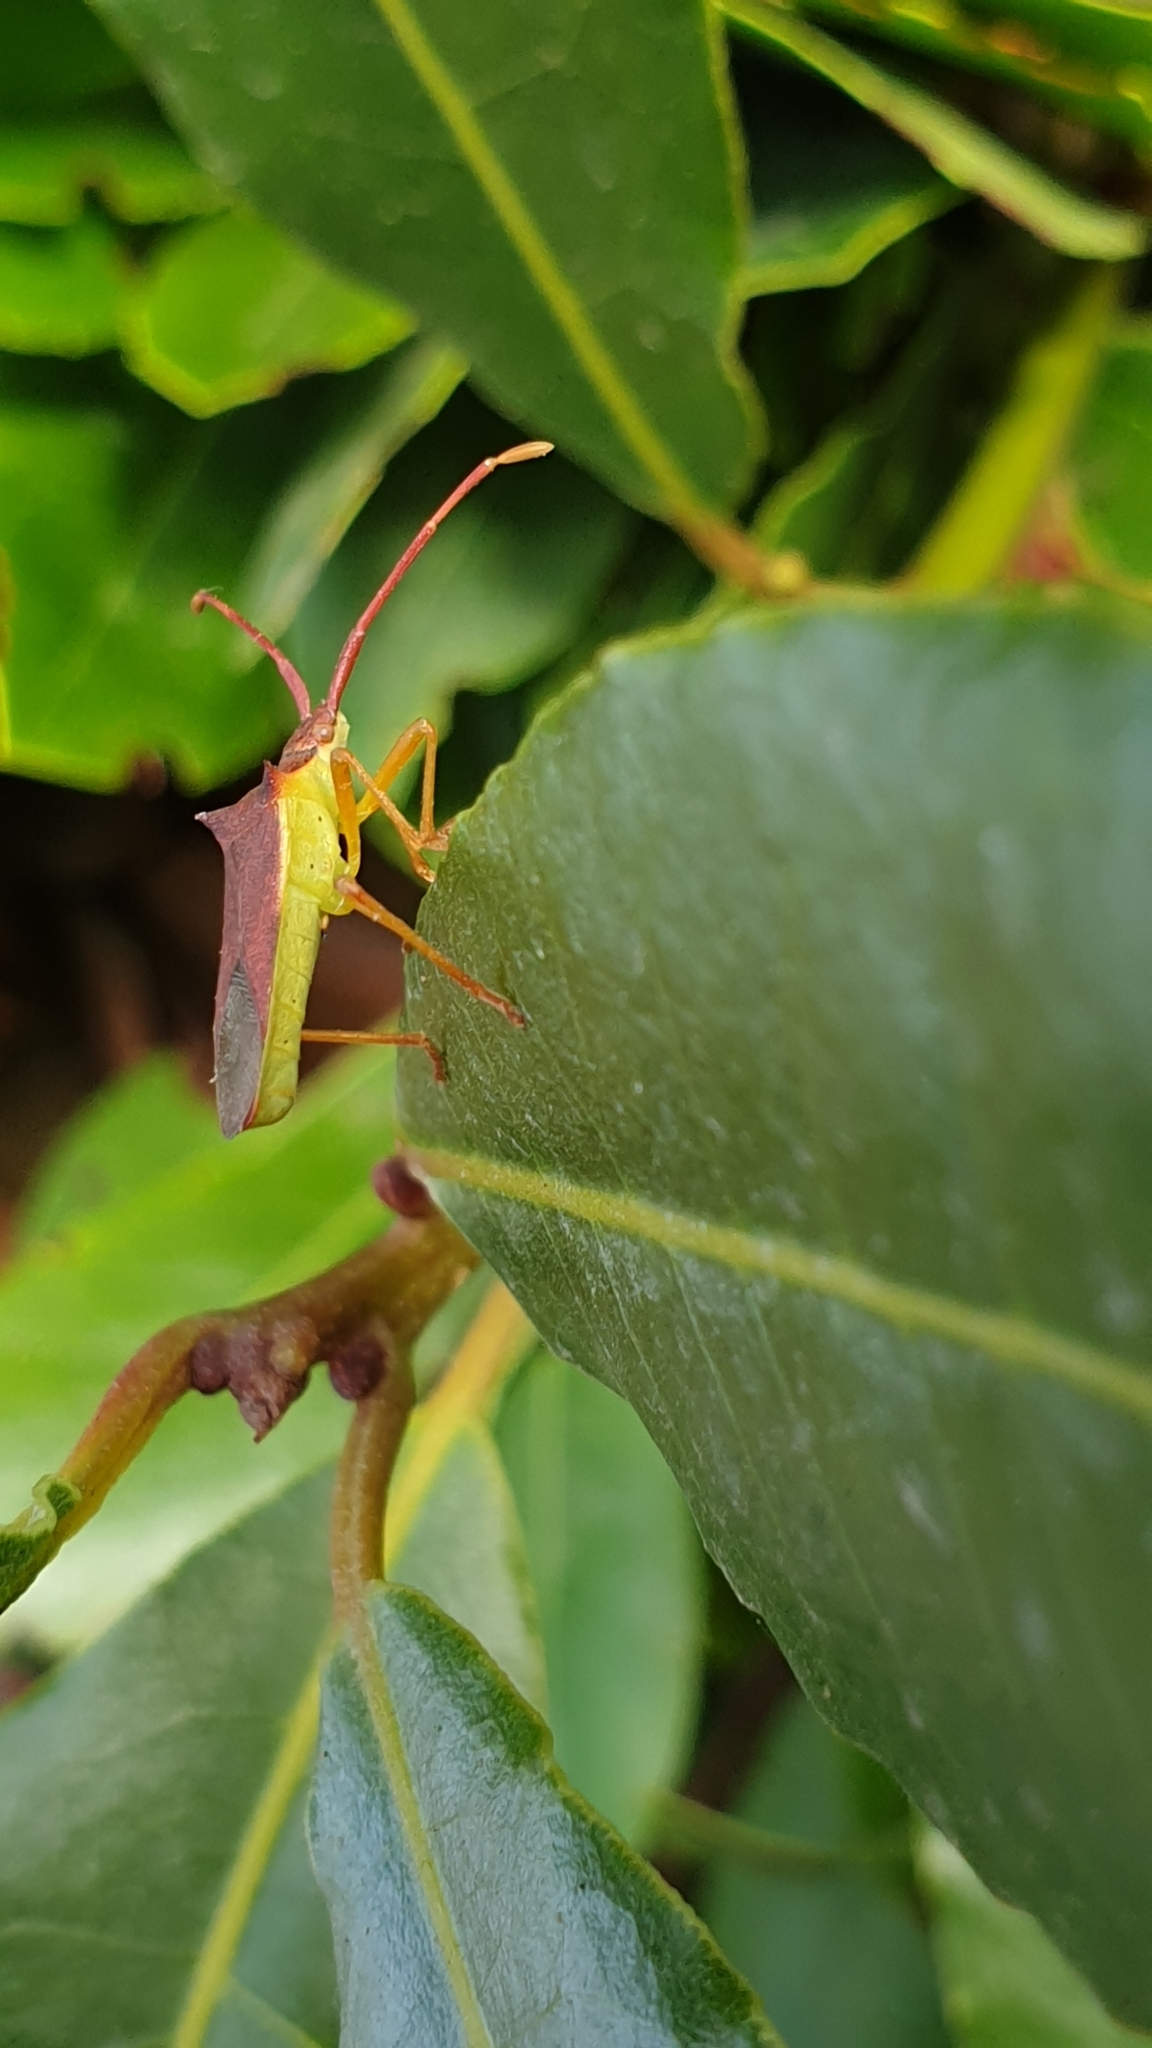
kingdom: Animalia
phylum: Arthropoda
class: Insecta
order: Hemiptera
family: Coreidae
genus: Gonocerus
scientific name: Gonocerus insidiator
